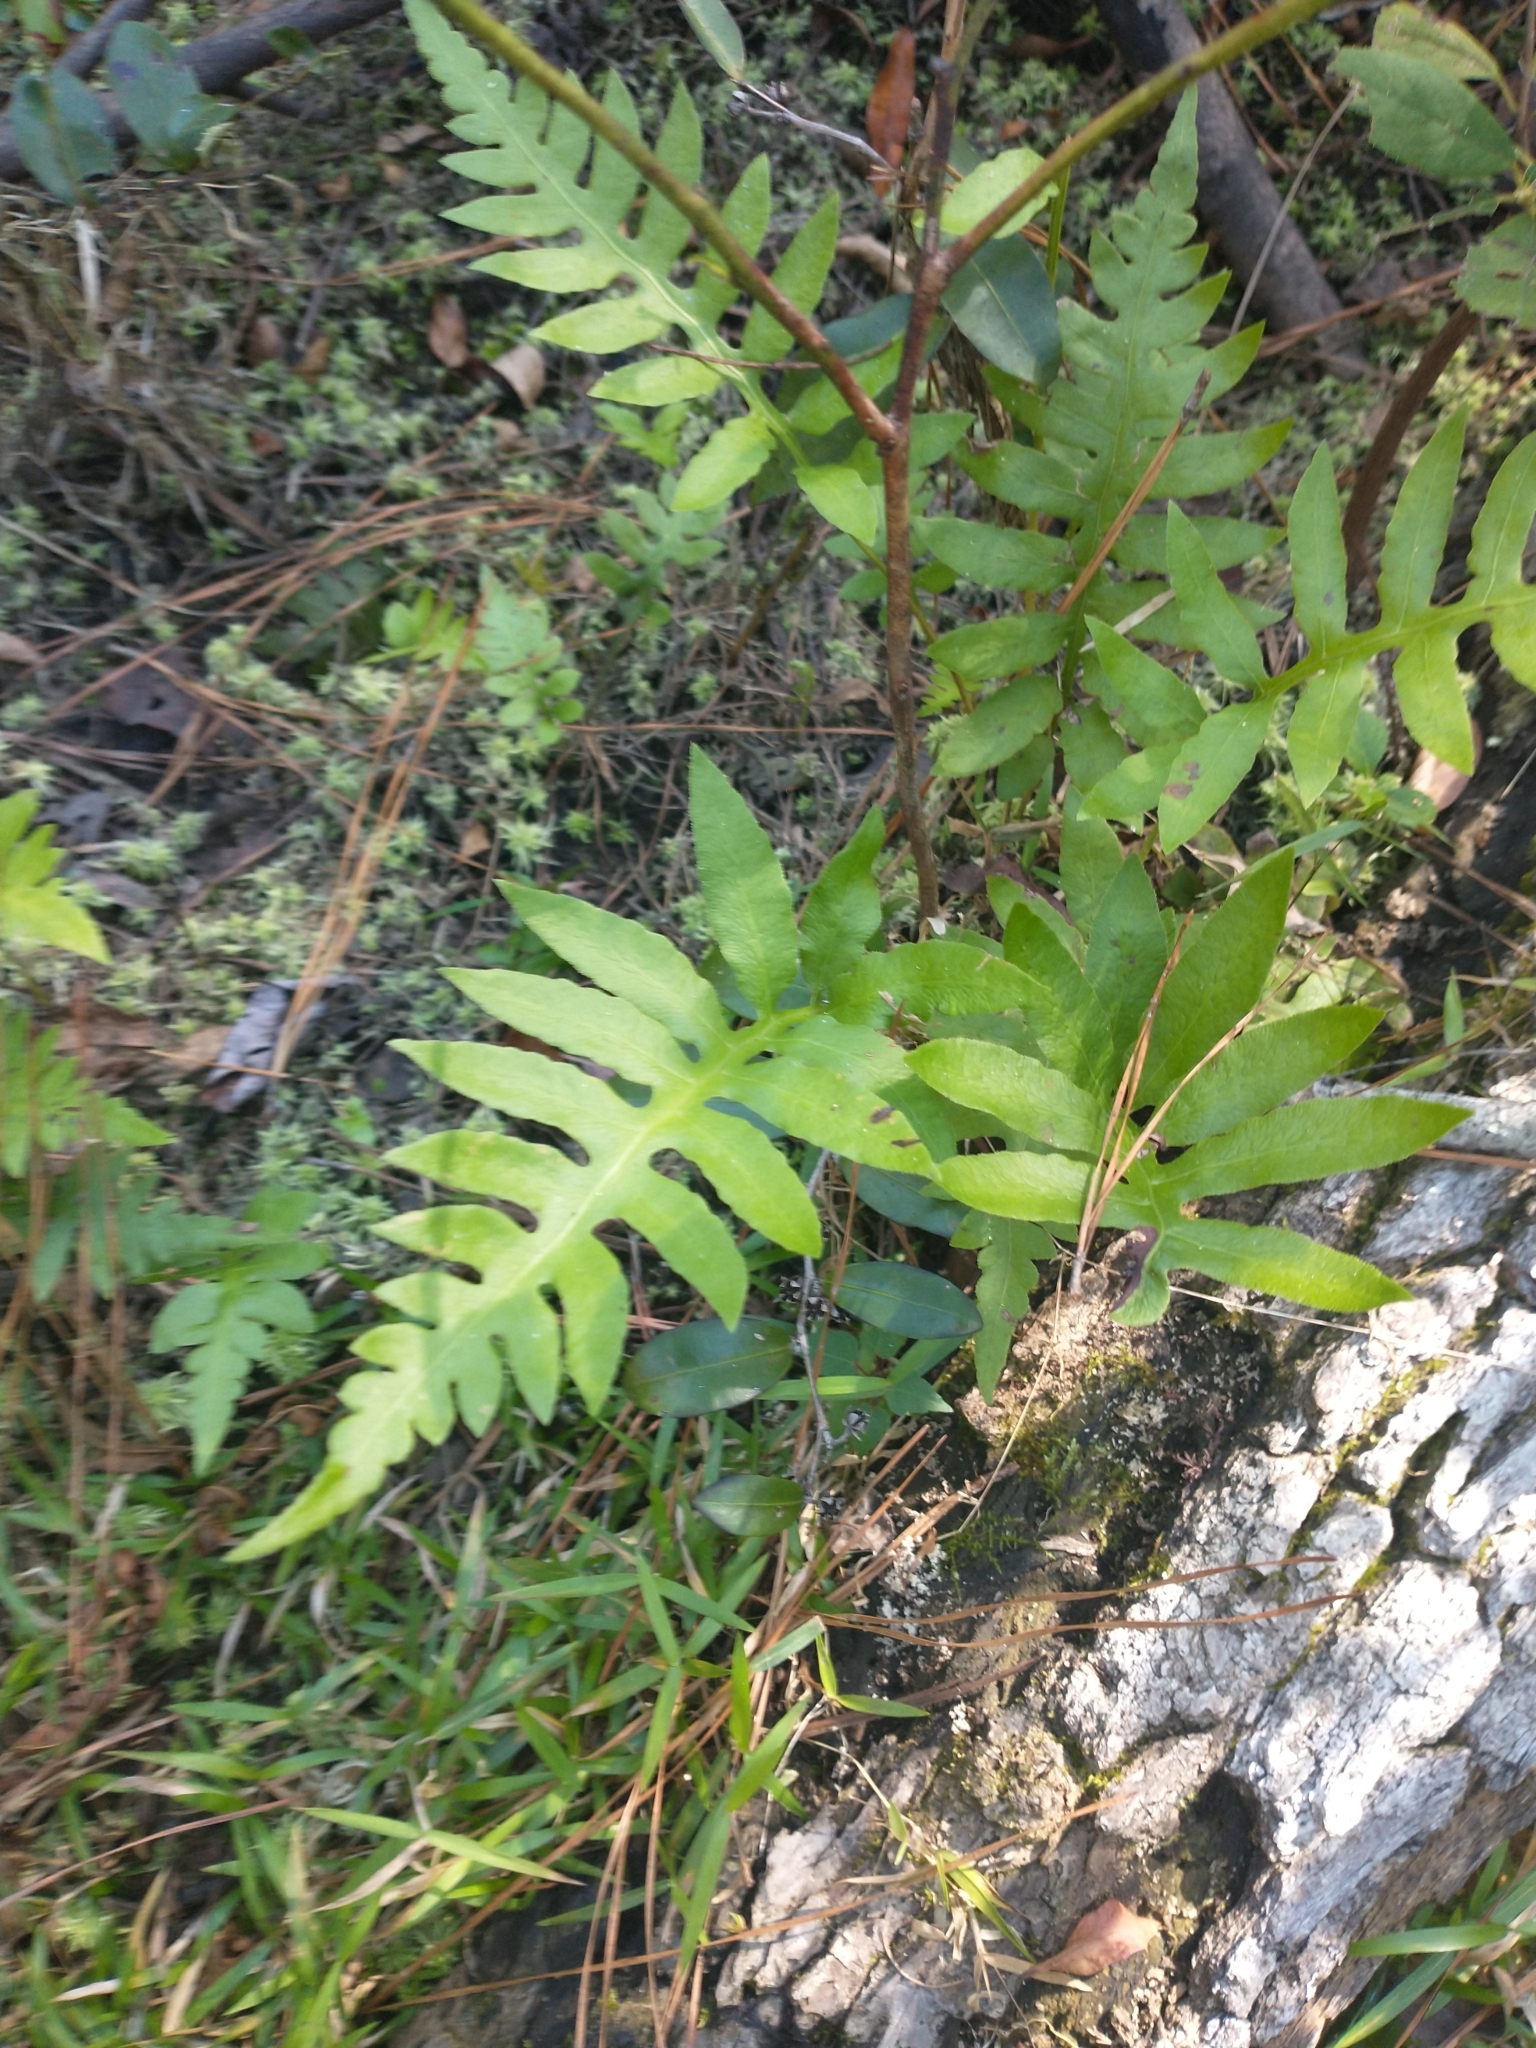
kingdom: Plantae
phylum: Tracheophyta
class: Polypodiopsida
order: Polypodiales
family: Blechnaceae
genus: Lorinseria
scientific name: Lorinseria areolata
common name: Dwarf chain fern
